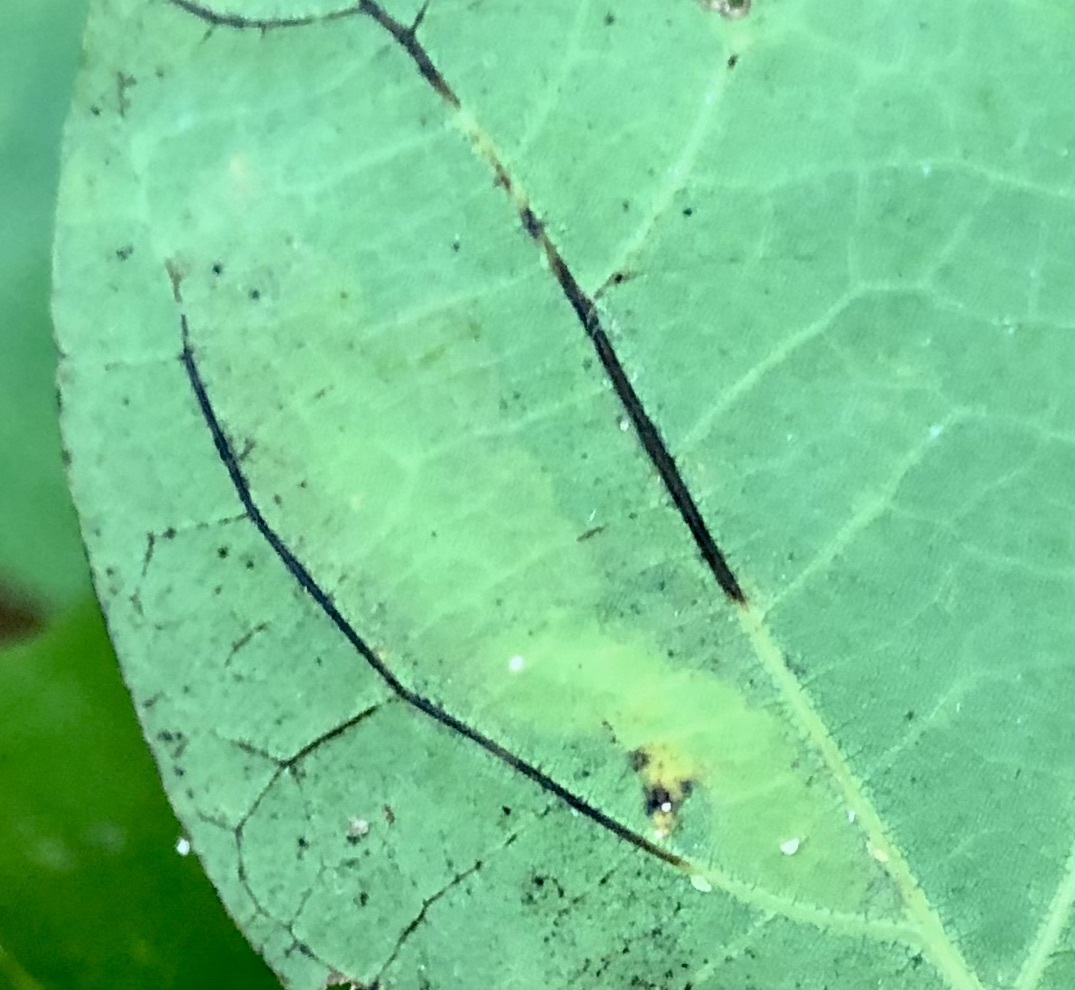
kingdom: Animalia
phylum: Arthropoda
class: Insecta
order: Lepidoptera
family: Tischeriidae
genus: Coptotriche
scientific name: Coptotriche badiiella
